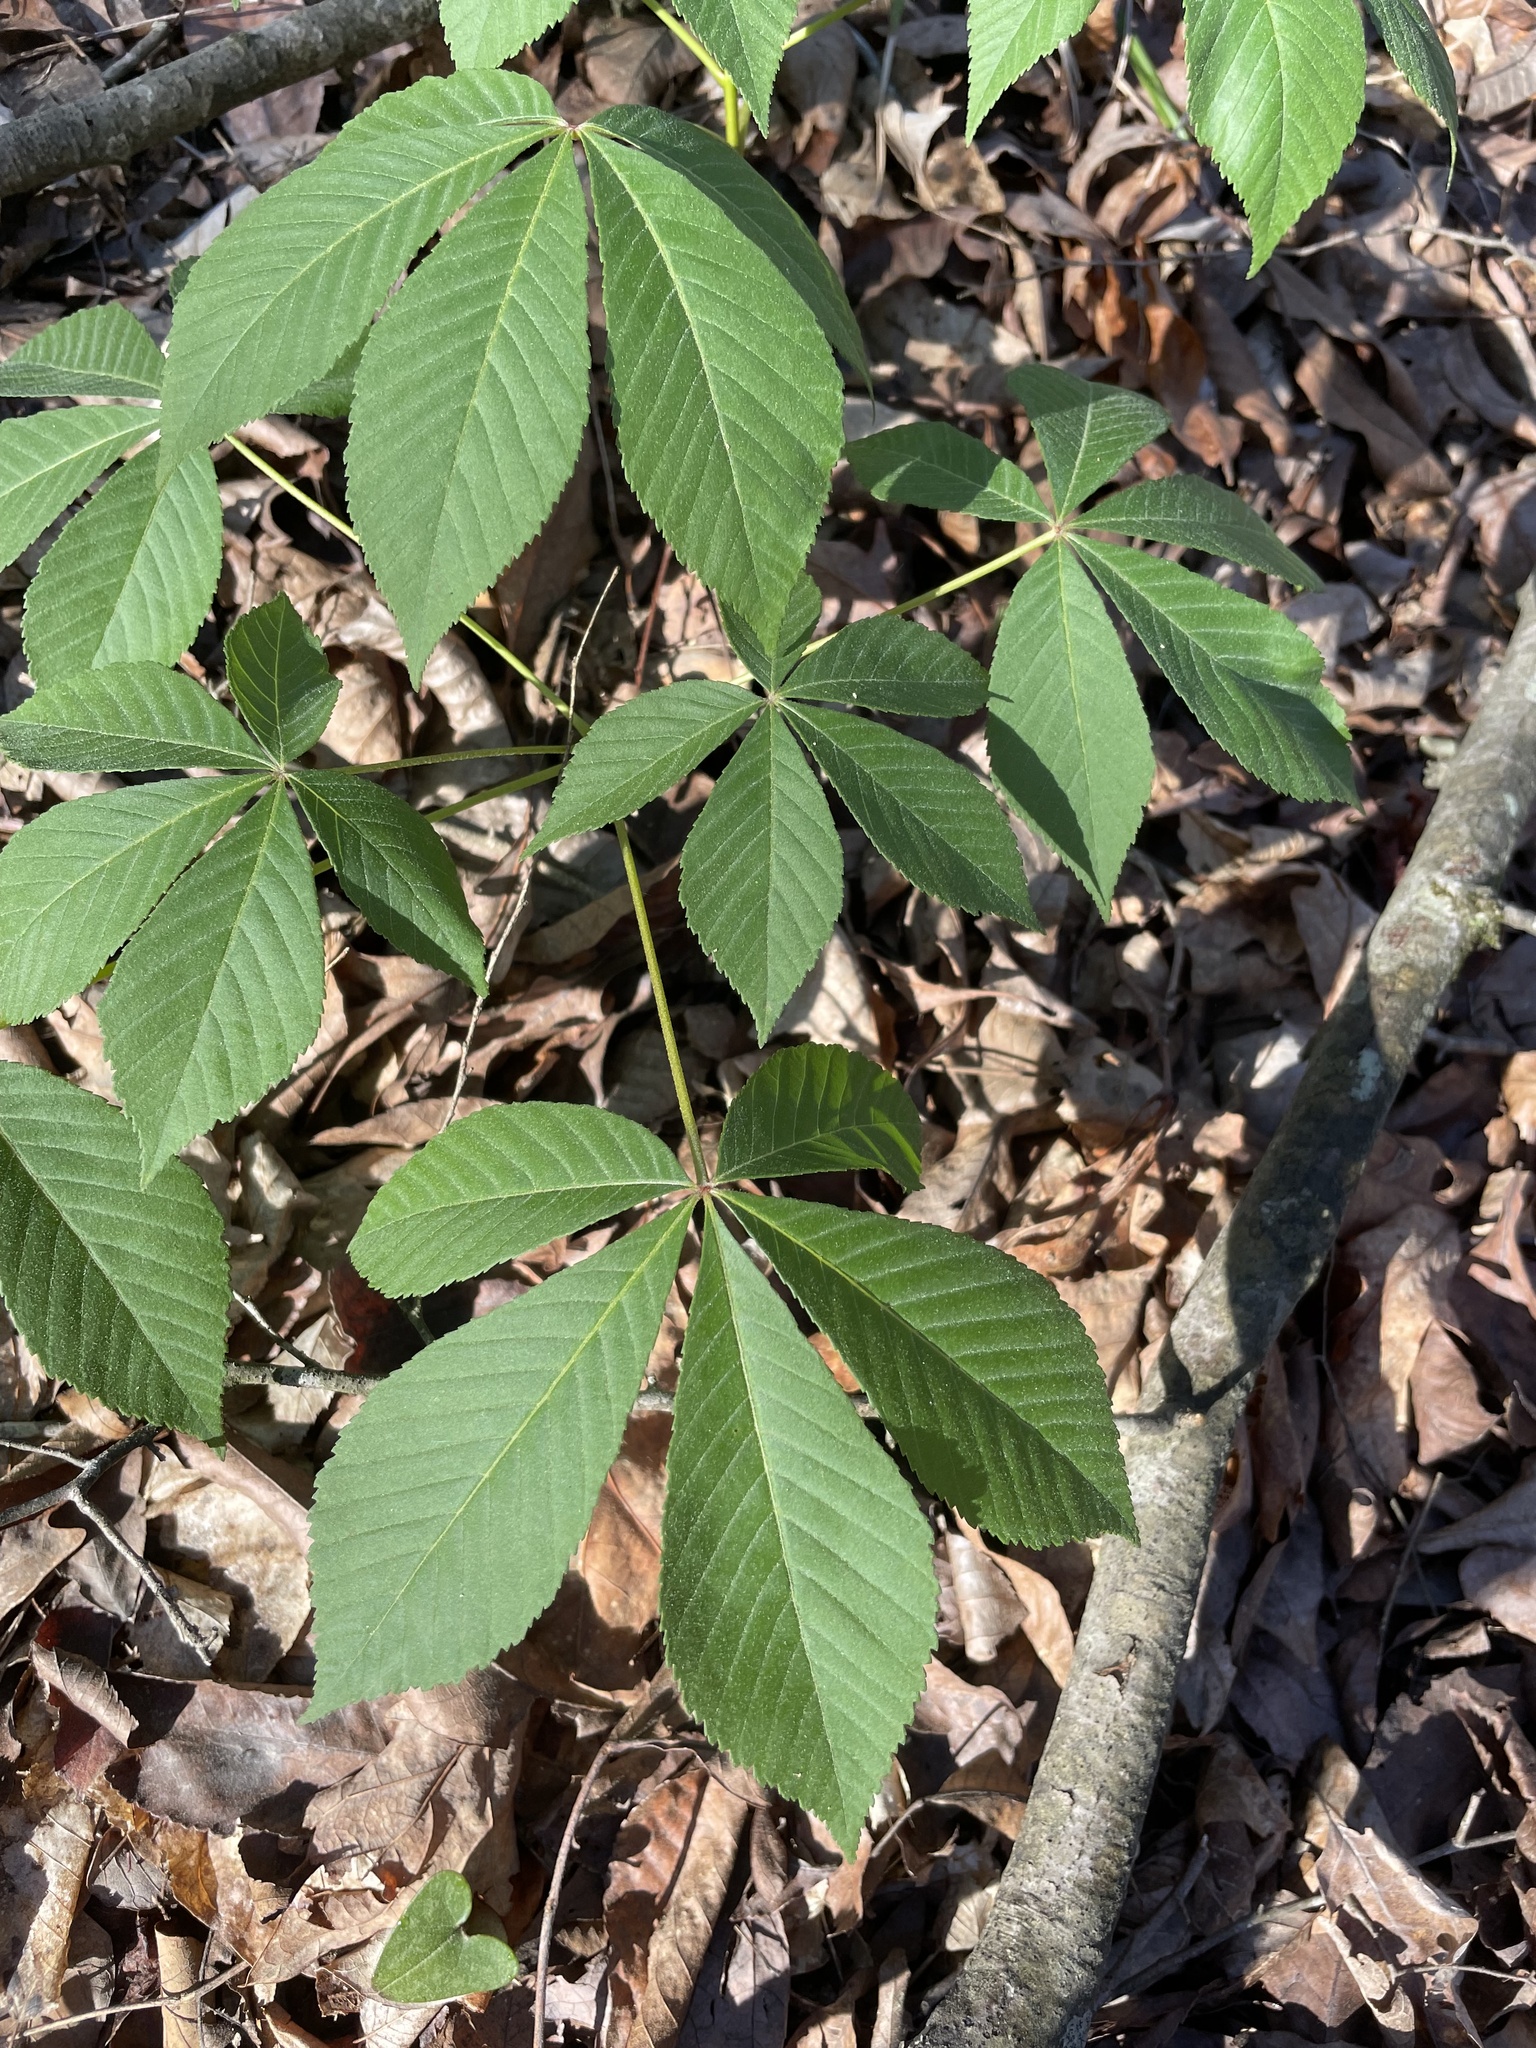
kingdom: Plantae
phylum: Tracheophyta
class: Magnoliopsida
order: Sapindales
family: Sapindaceae
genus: Aesculus
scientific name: Aesculus sylvatica
